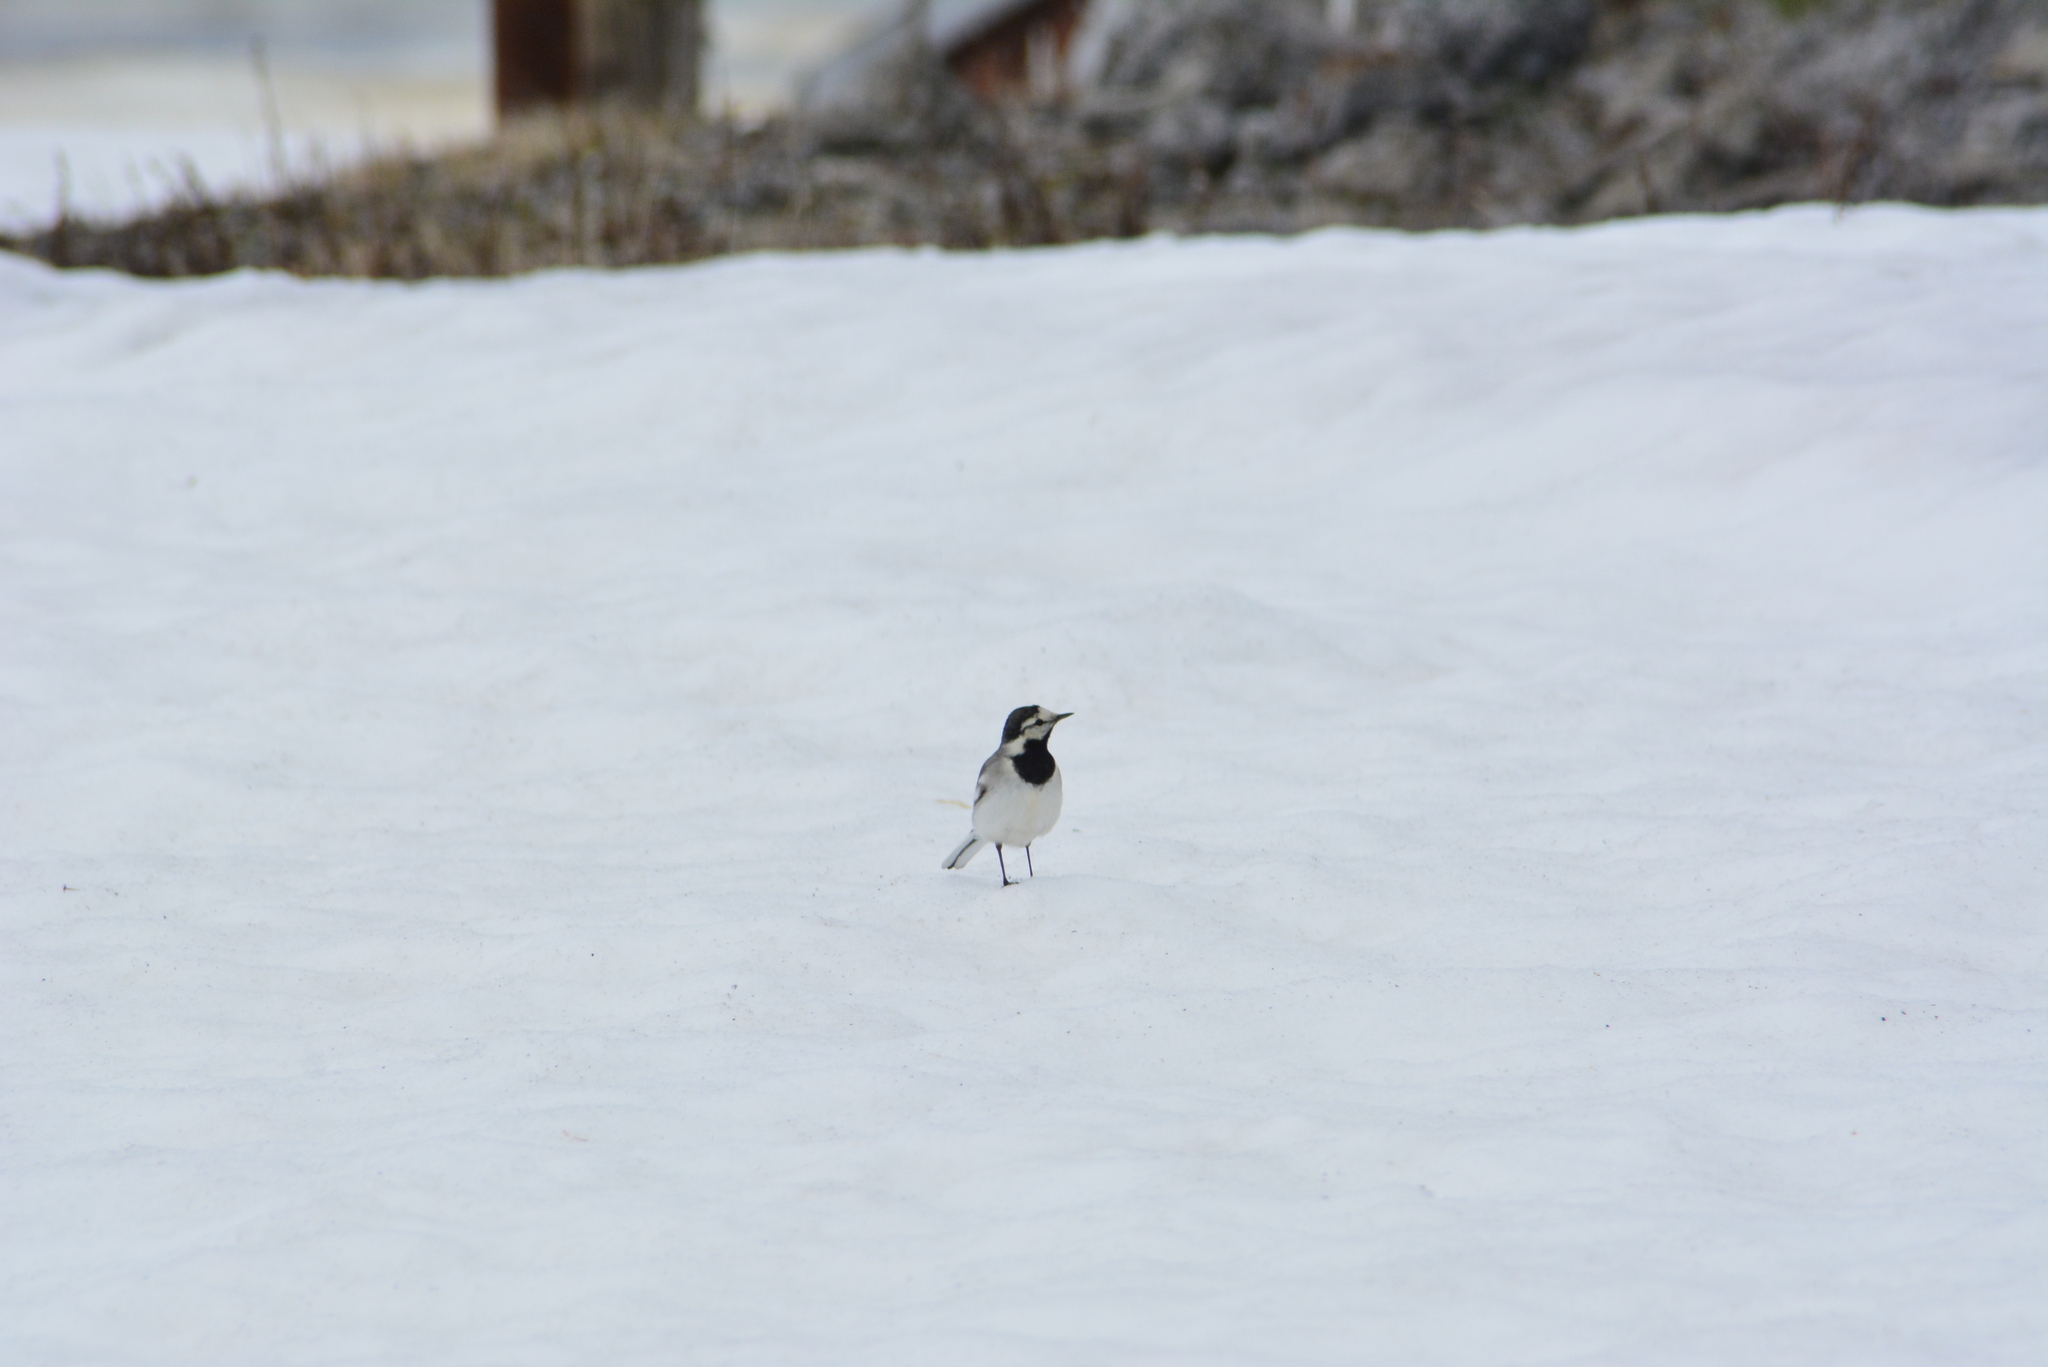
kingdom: Animalia
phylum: Chordata
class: Aves
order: Passeriformes
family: Motacillidae
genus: Motacilla
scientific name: Motacilla alba
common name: White wagtail
